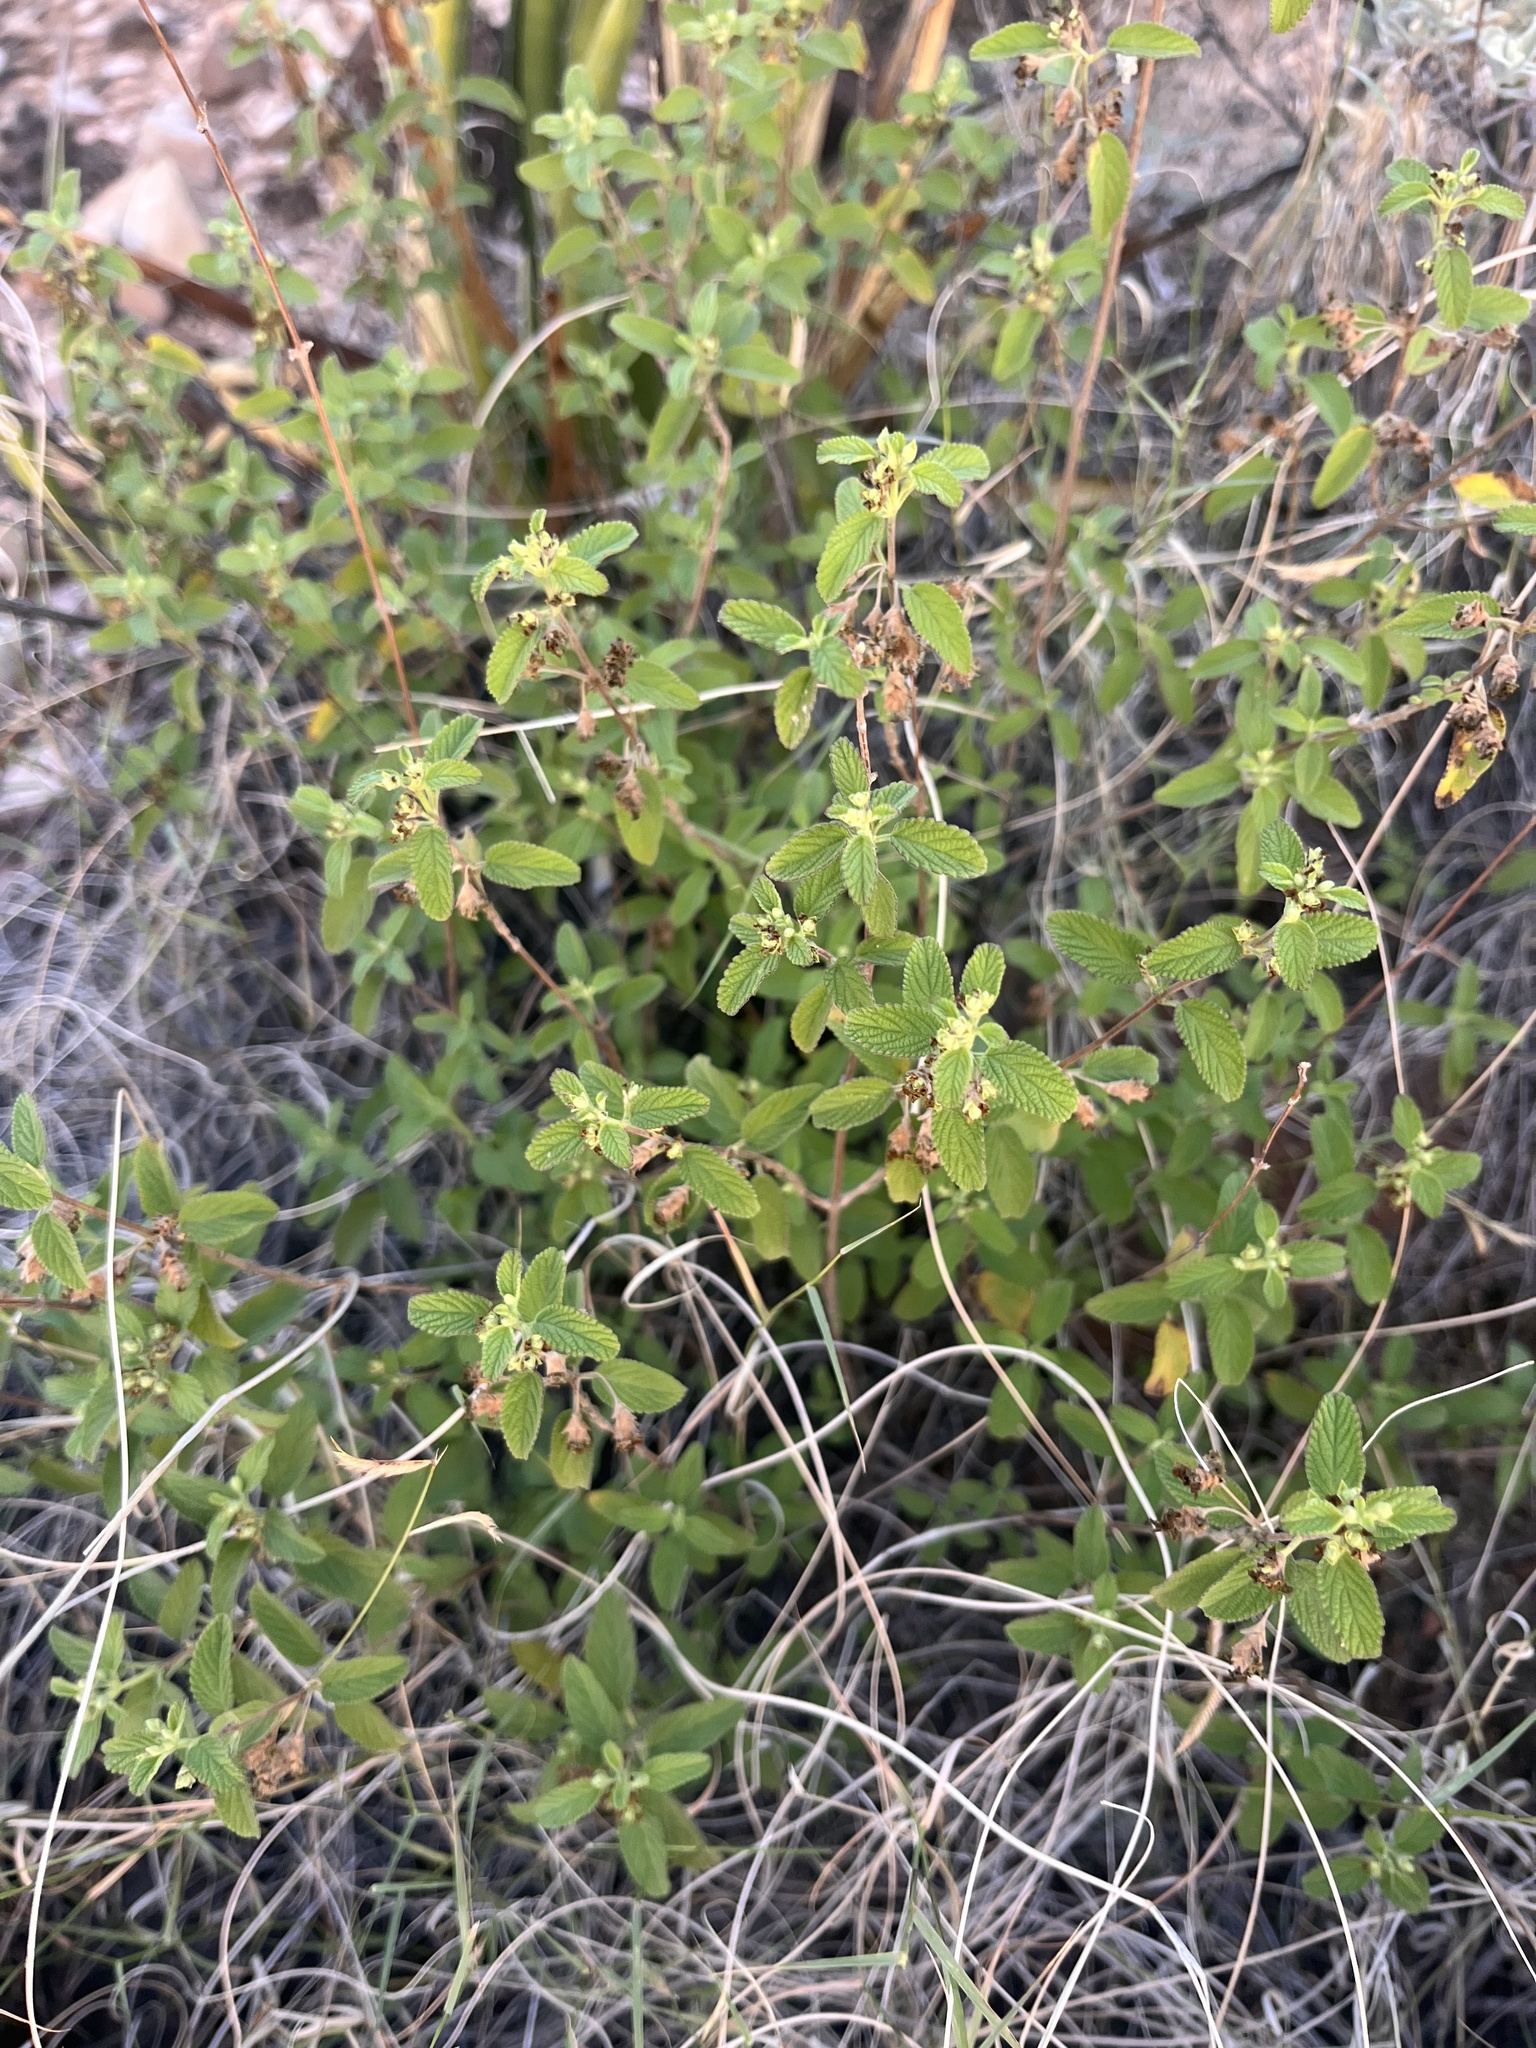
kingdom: Plantae
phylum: Tracheophyta
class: Magnoliopsida
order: Lamiales
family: Verbenaceae
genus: Lippia
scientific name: Lippia origanoides
